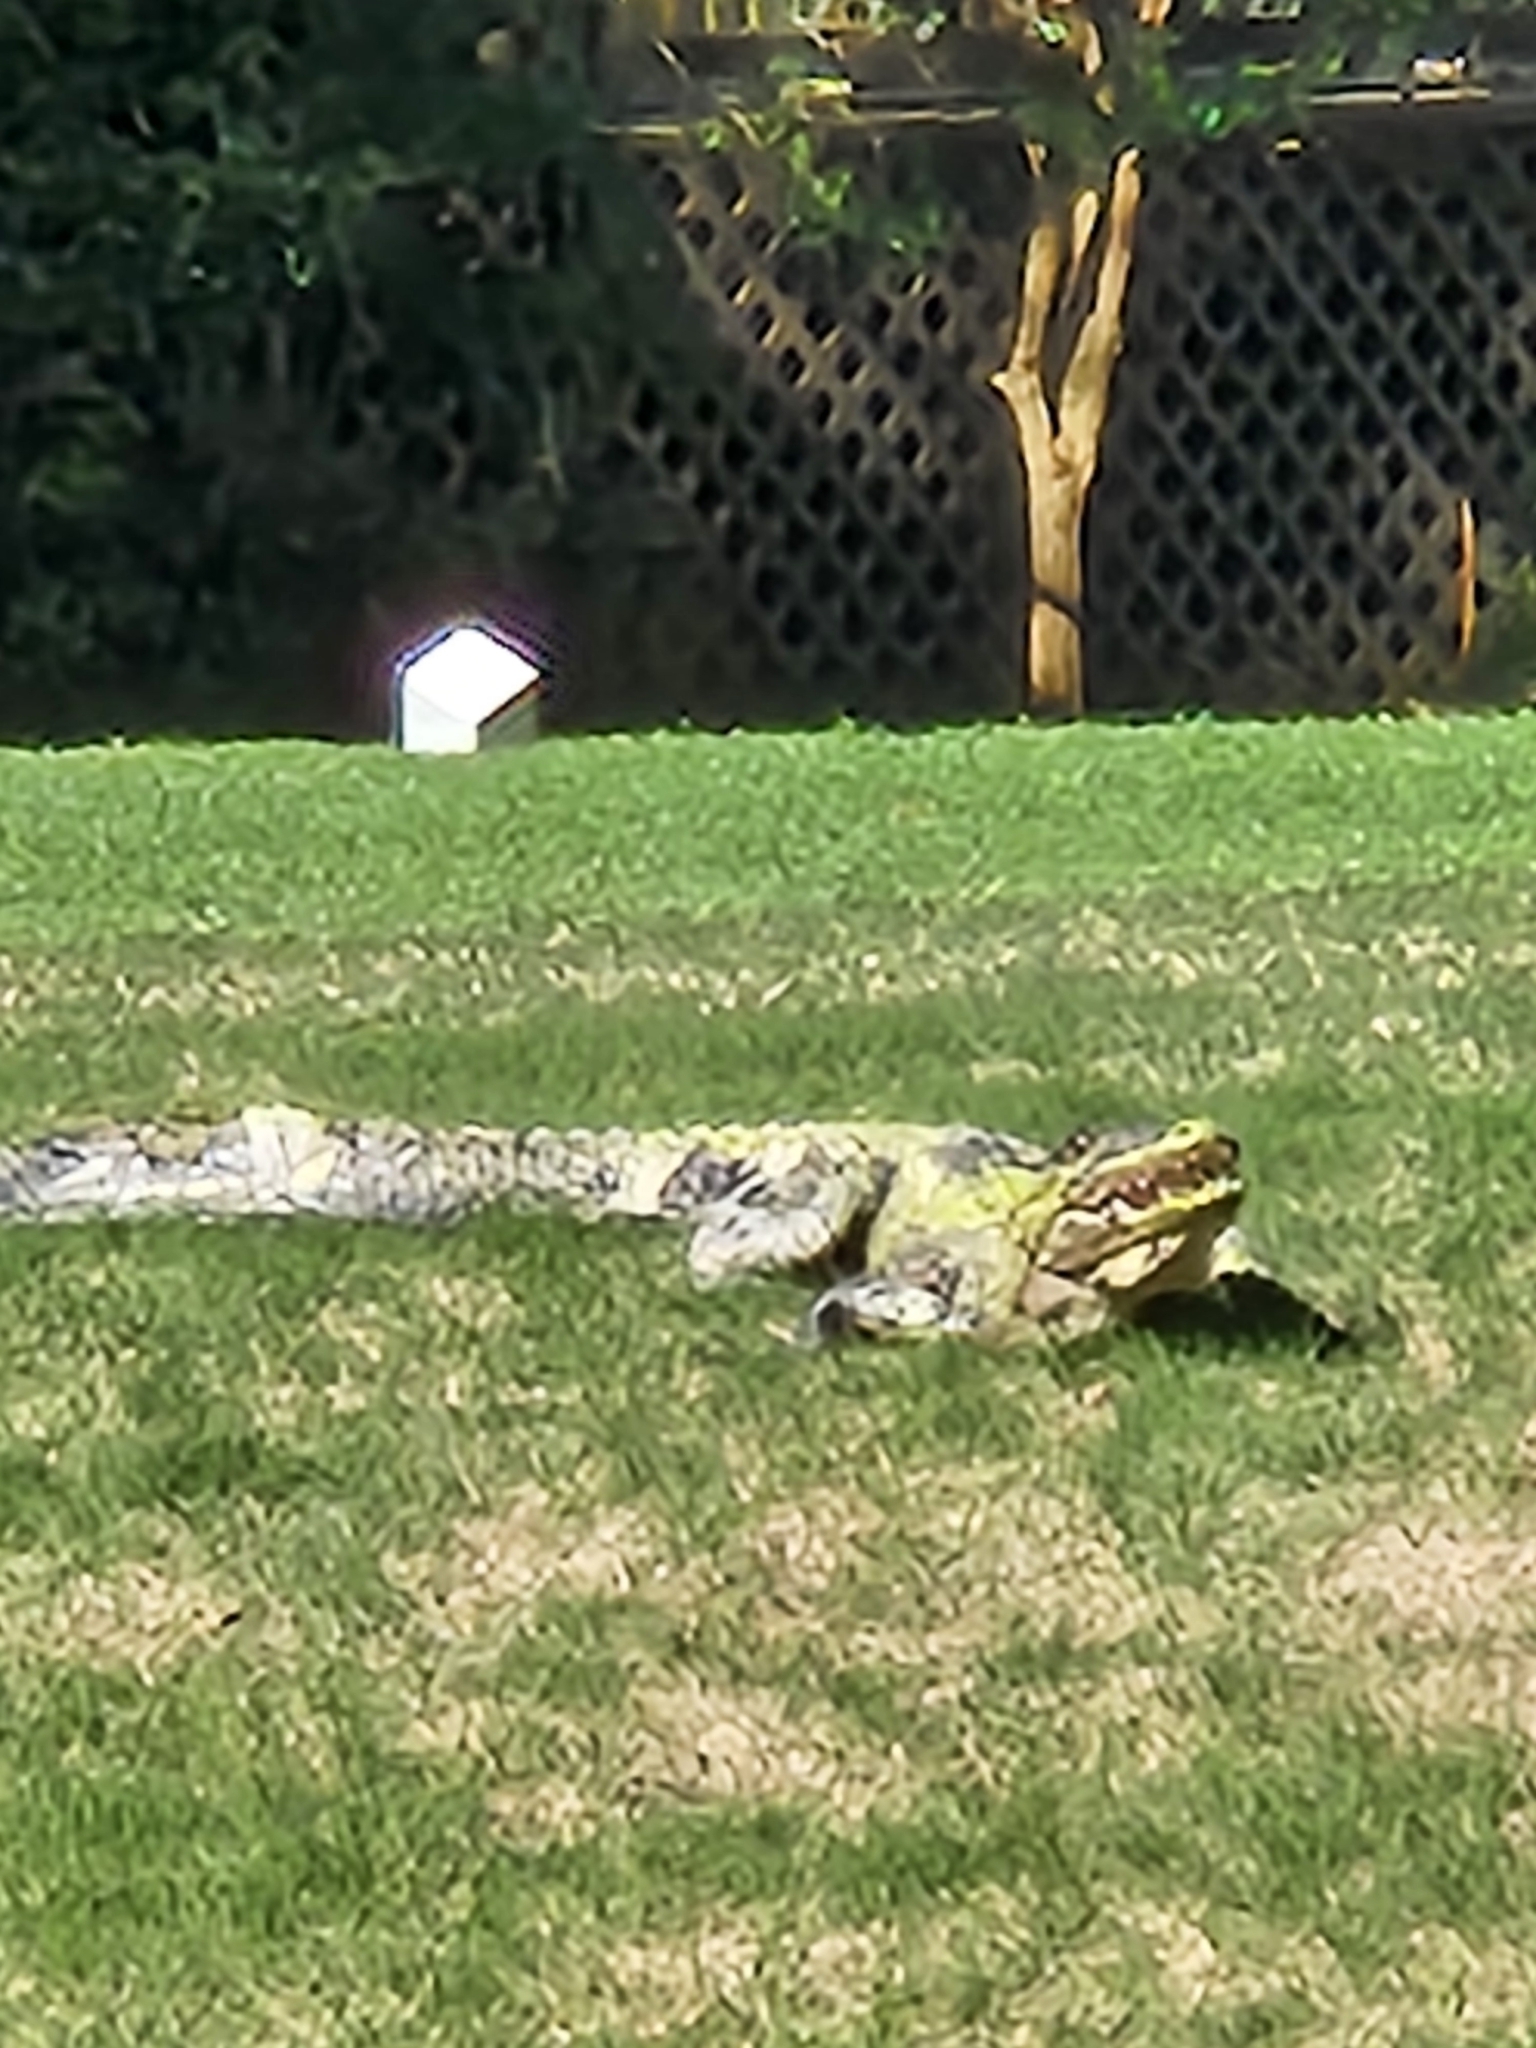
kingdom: Animalia
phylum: Chordata
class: Crocodylia
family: Alligatoridae
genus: Alligator
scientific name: Alligator mississippiensis
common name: American alligator
